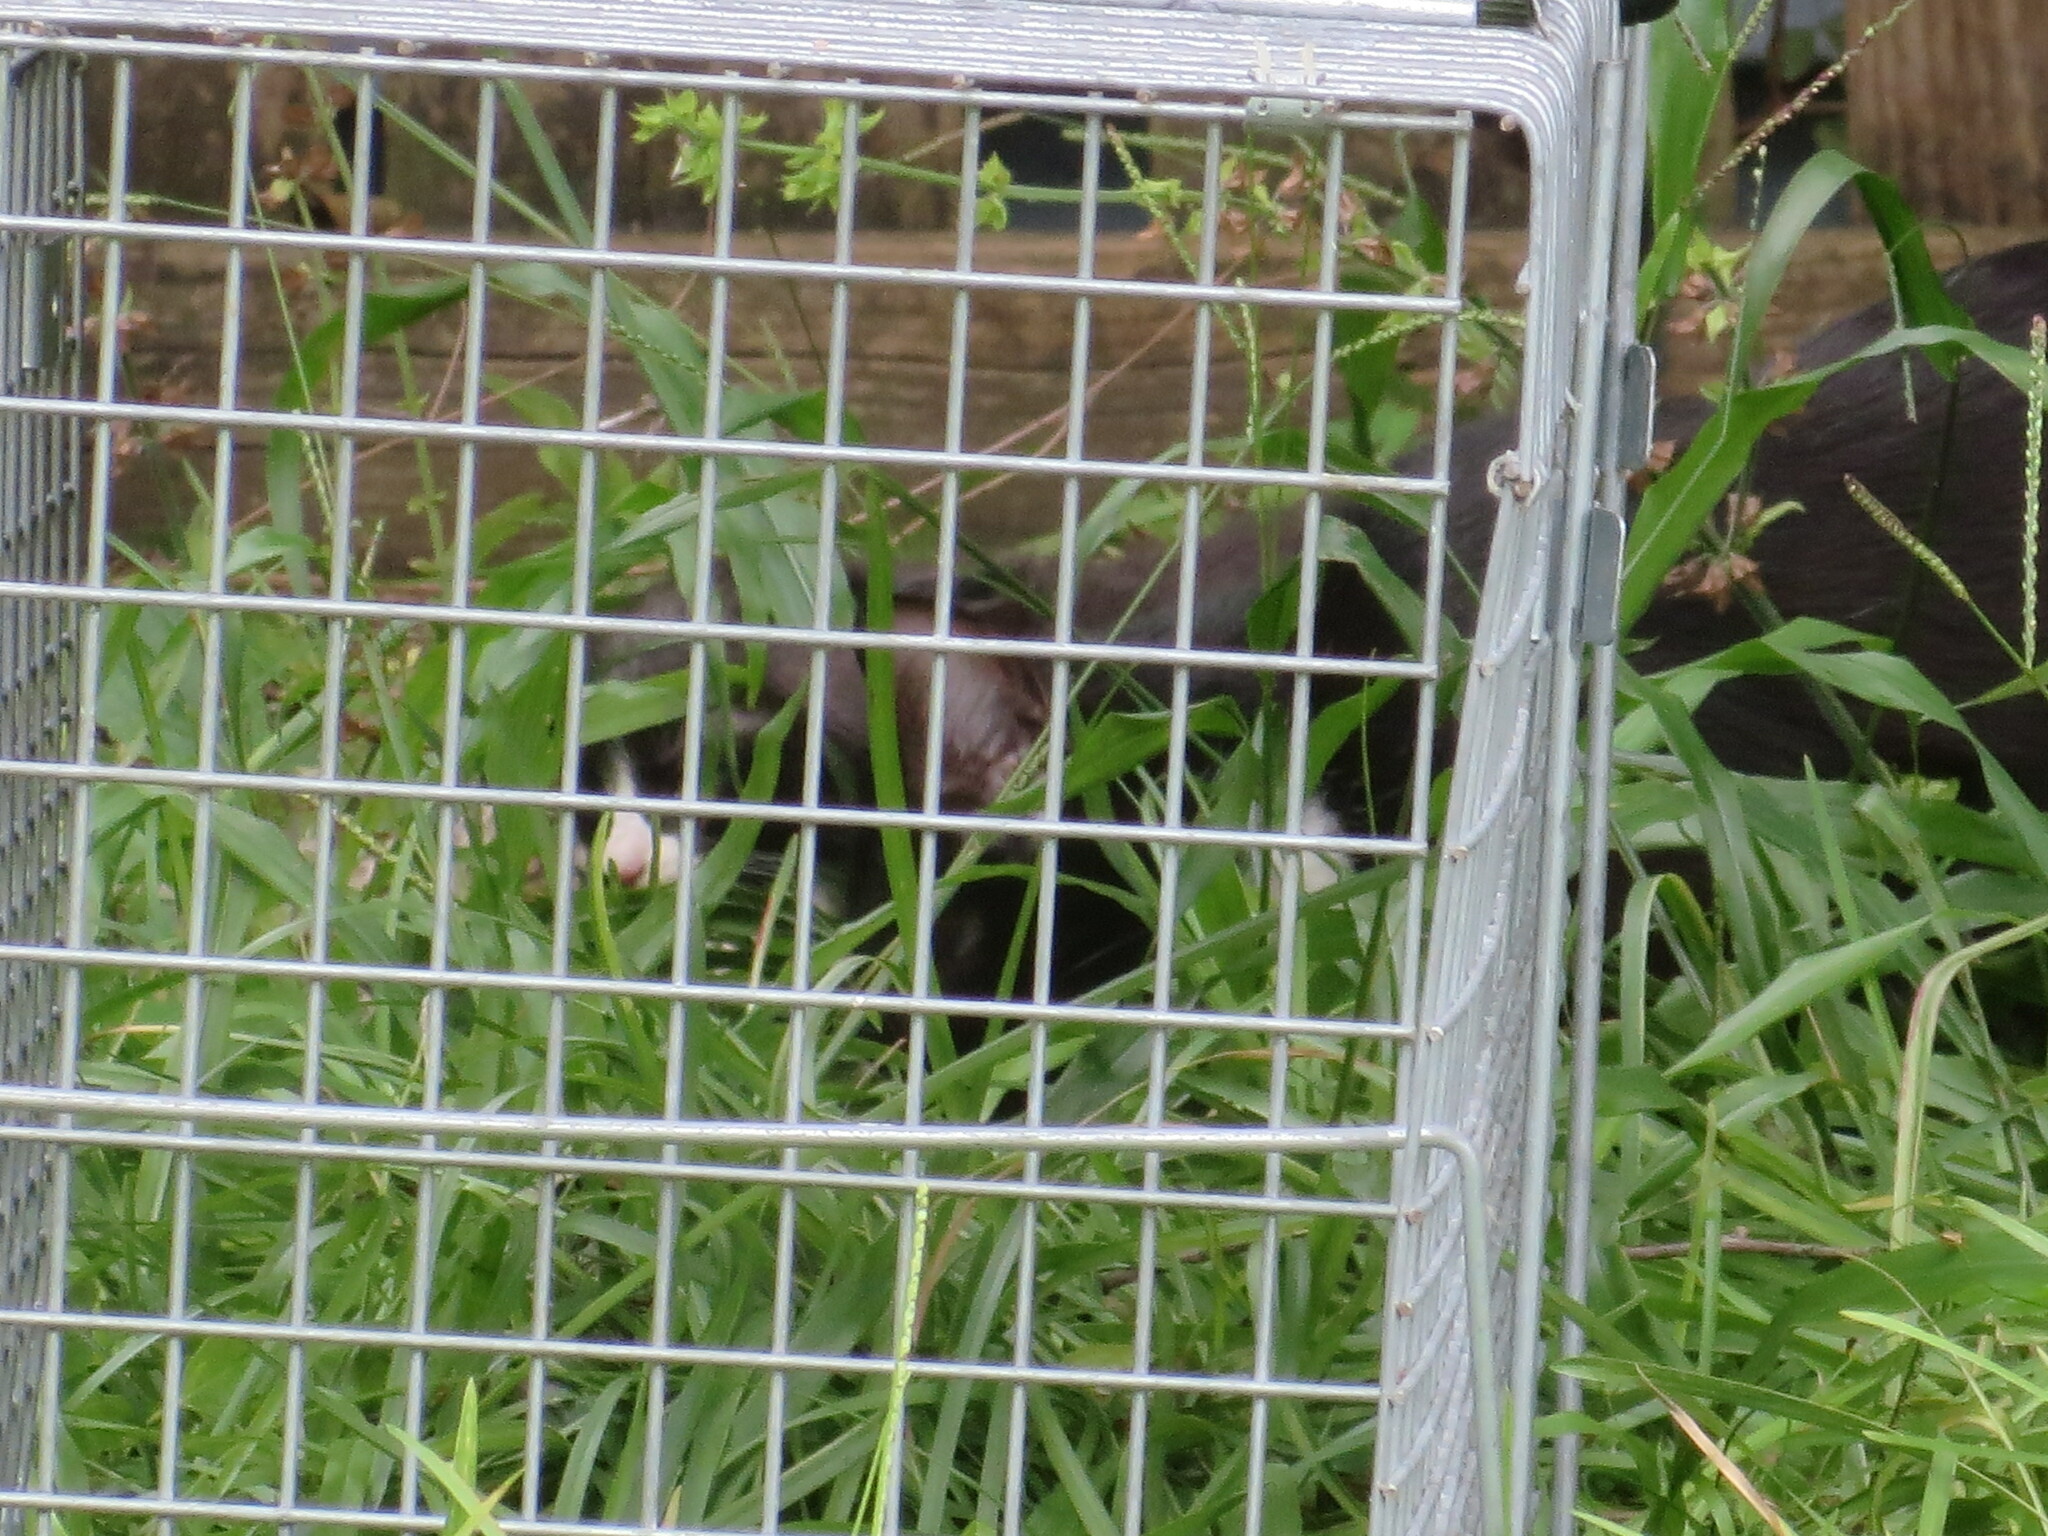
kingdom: Animalia
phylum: Chordata
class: Mammalia
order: Carnivora
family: Felidae
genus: Felis
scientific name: Felis catus
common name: Domestic cat
